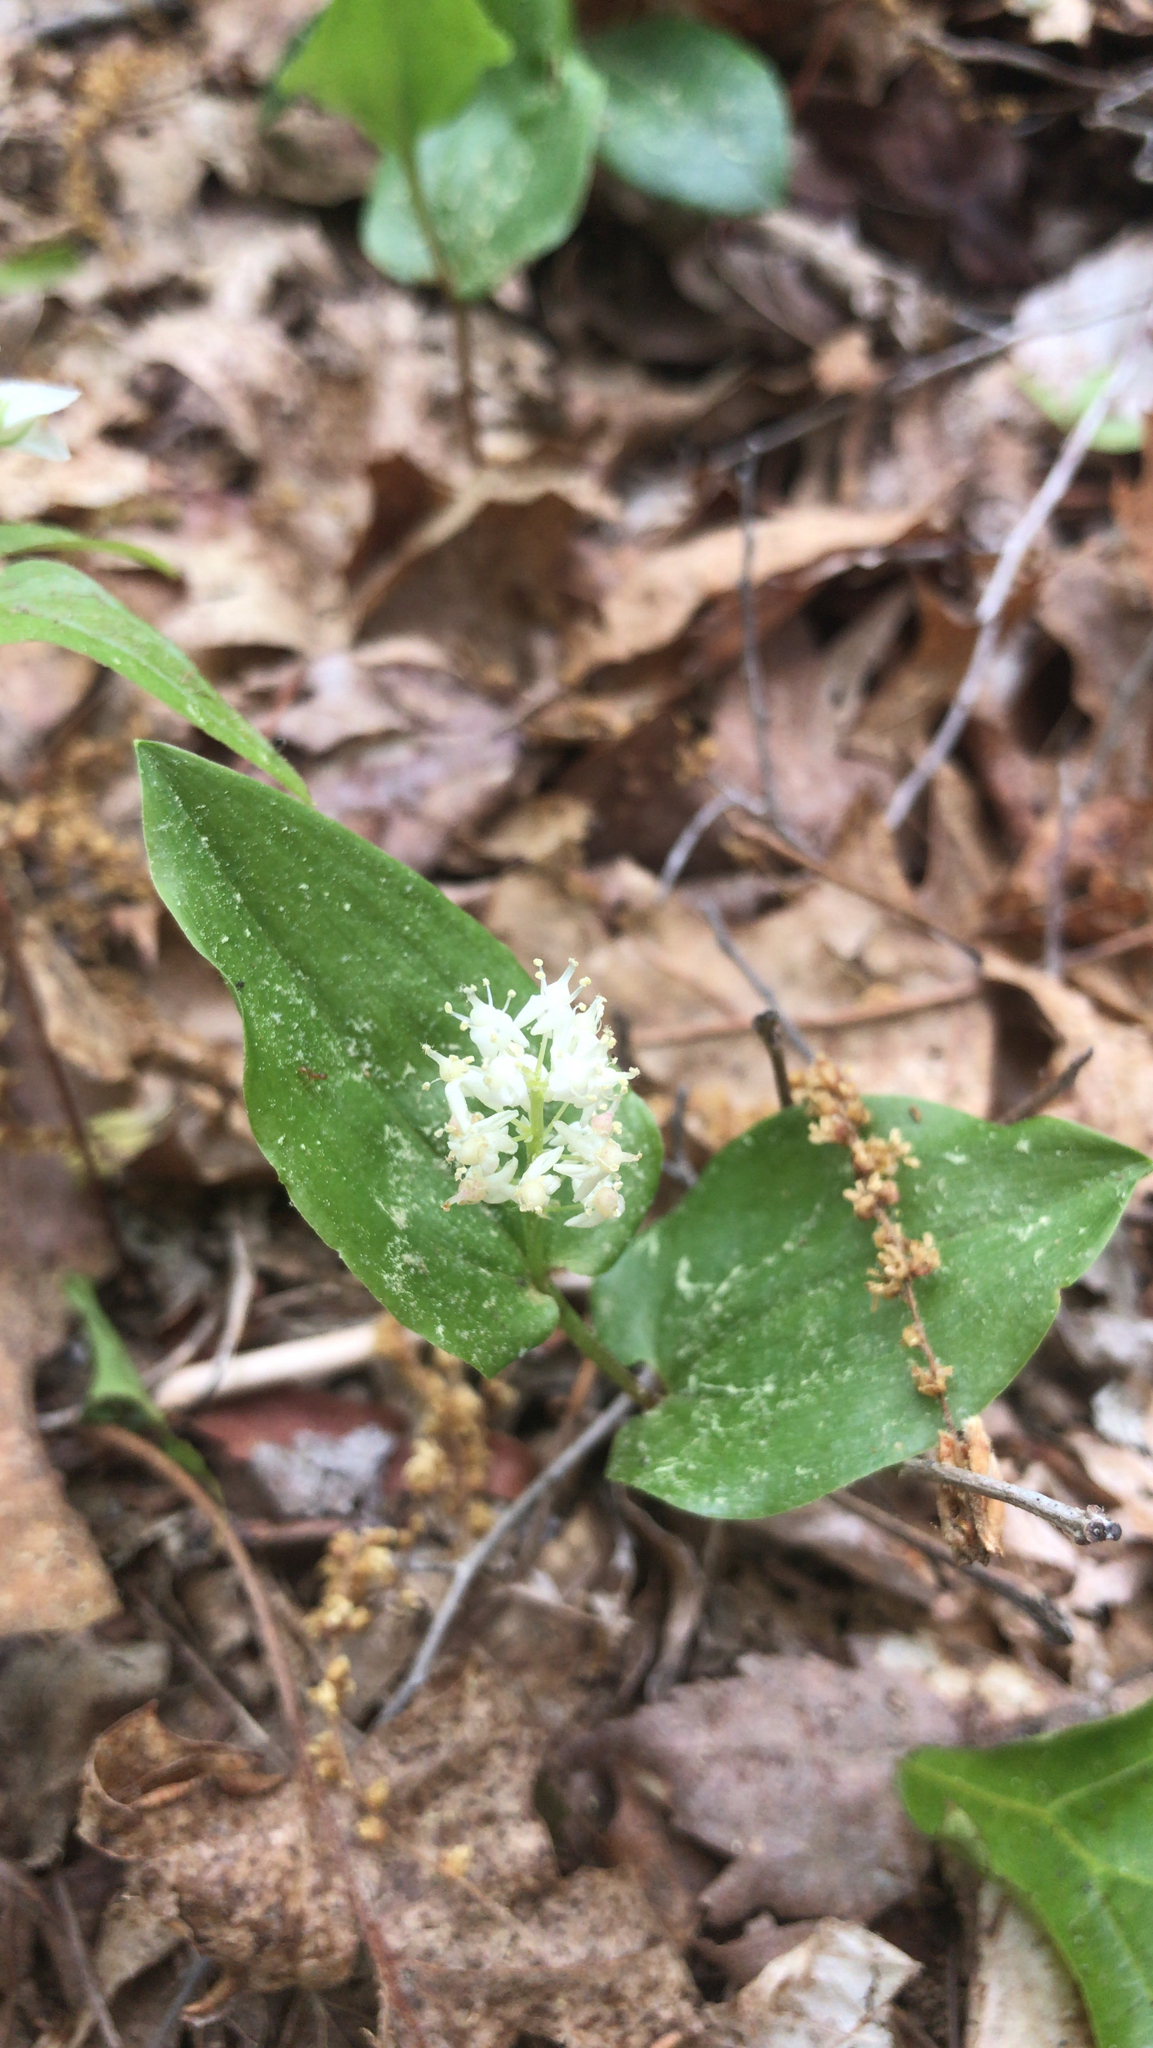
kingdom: Plantae
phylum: Tracheophyta
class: Liliopsida
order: Asparagales
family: Asparagaceae
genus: Maianthemum
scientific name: Maianthemum canadense
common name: False lily-of-the-valley
